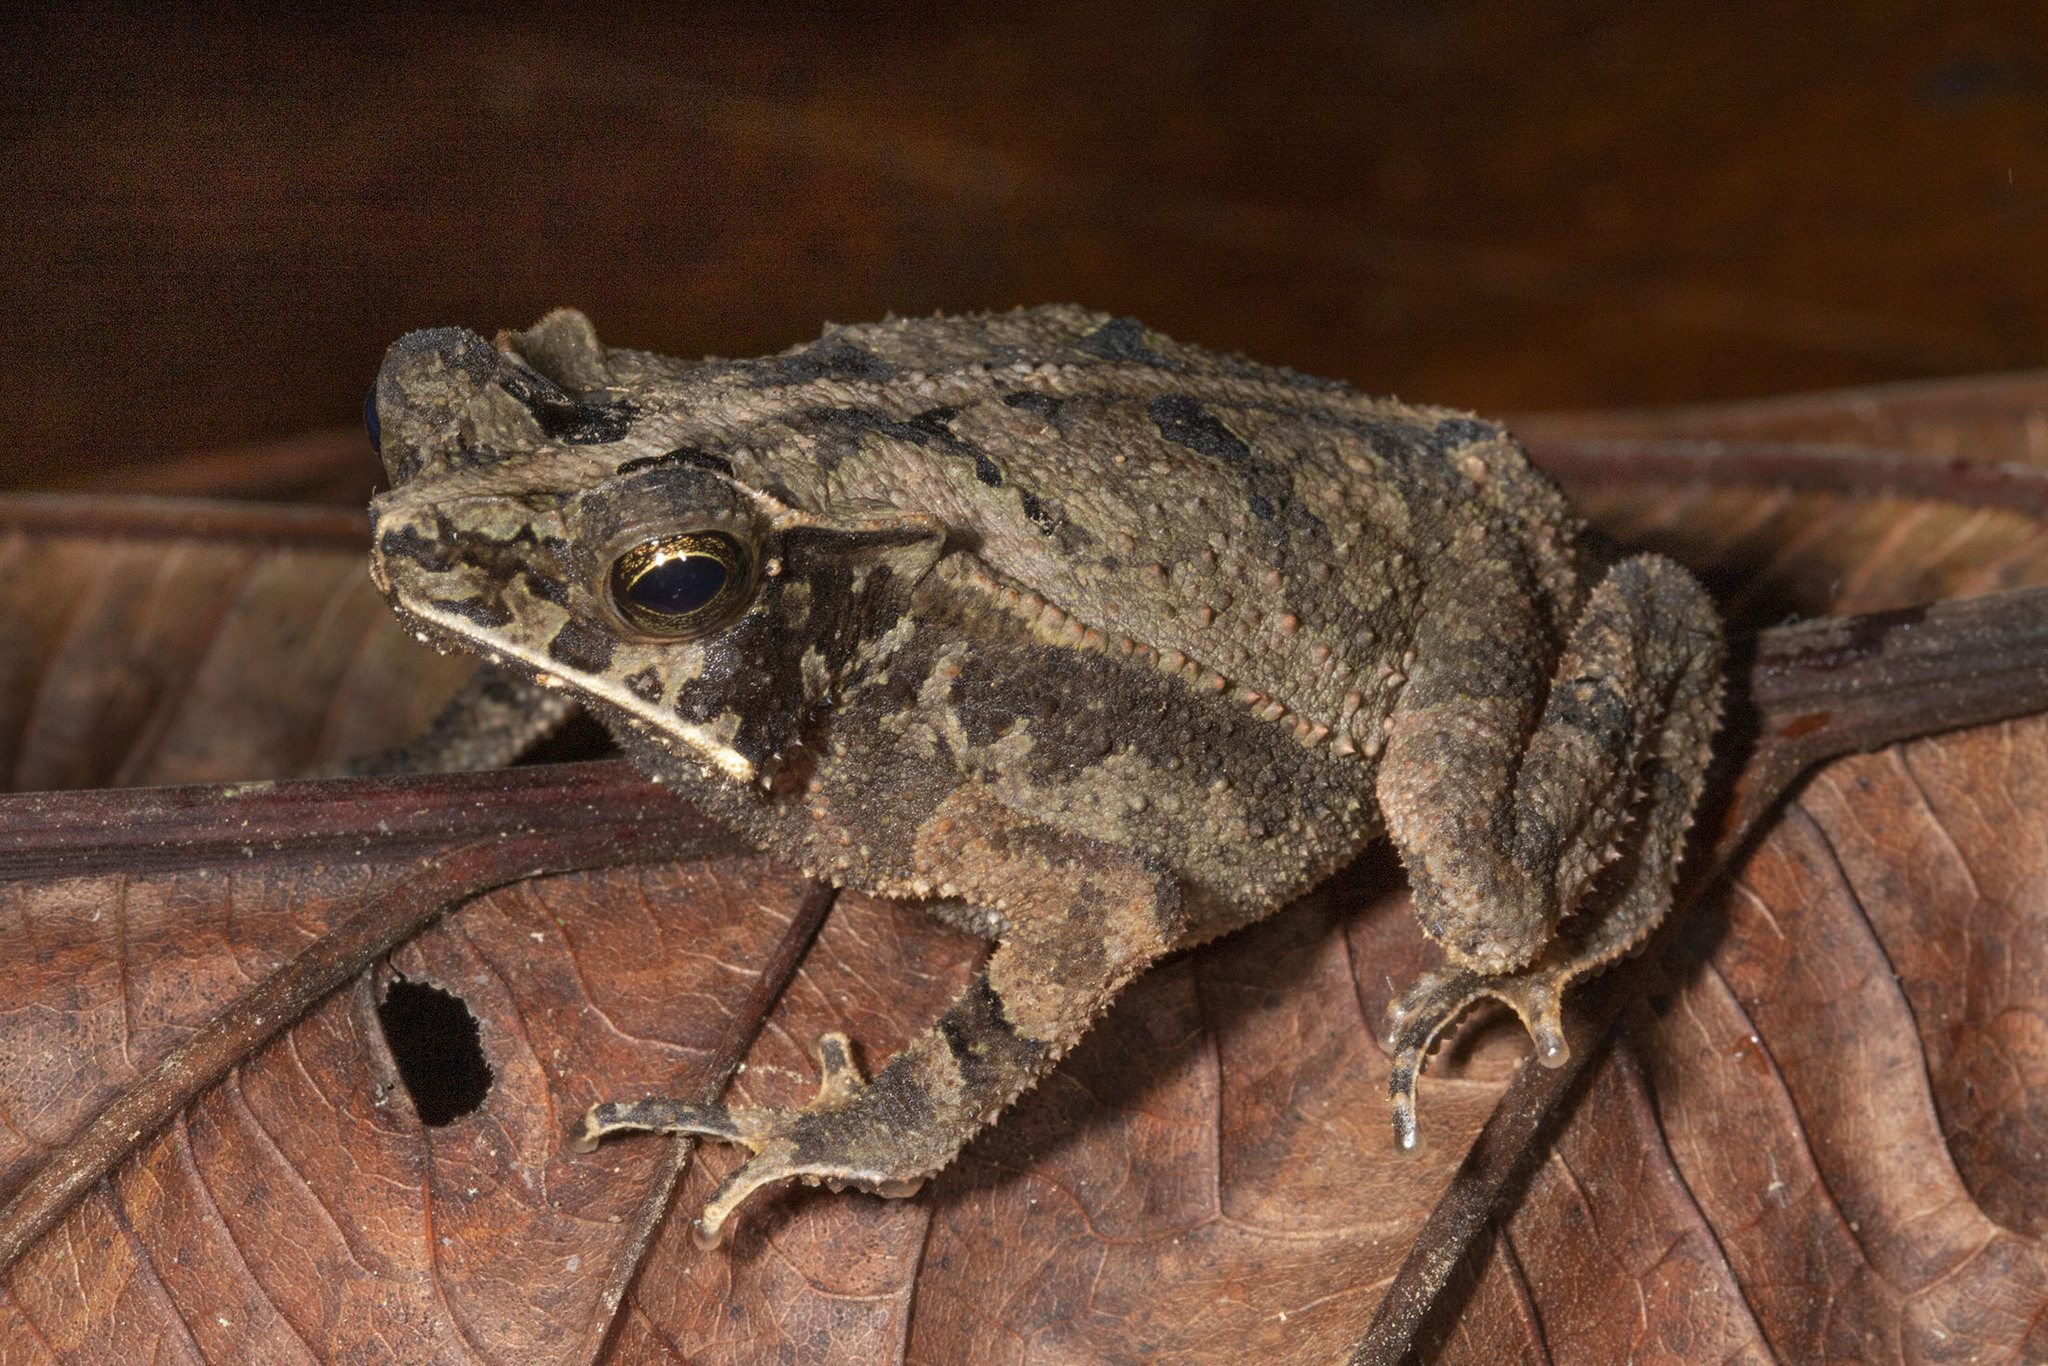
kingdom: Animalia
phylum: Chordata
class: Amphibia
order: Anura
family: Bufonidae
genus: Rhinella
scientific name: Rhinella margaritifera
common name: Mitred toad
